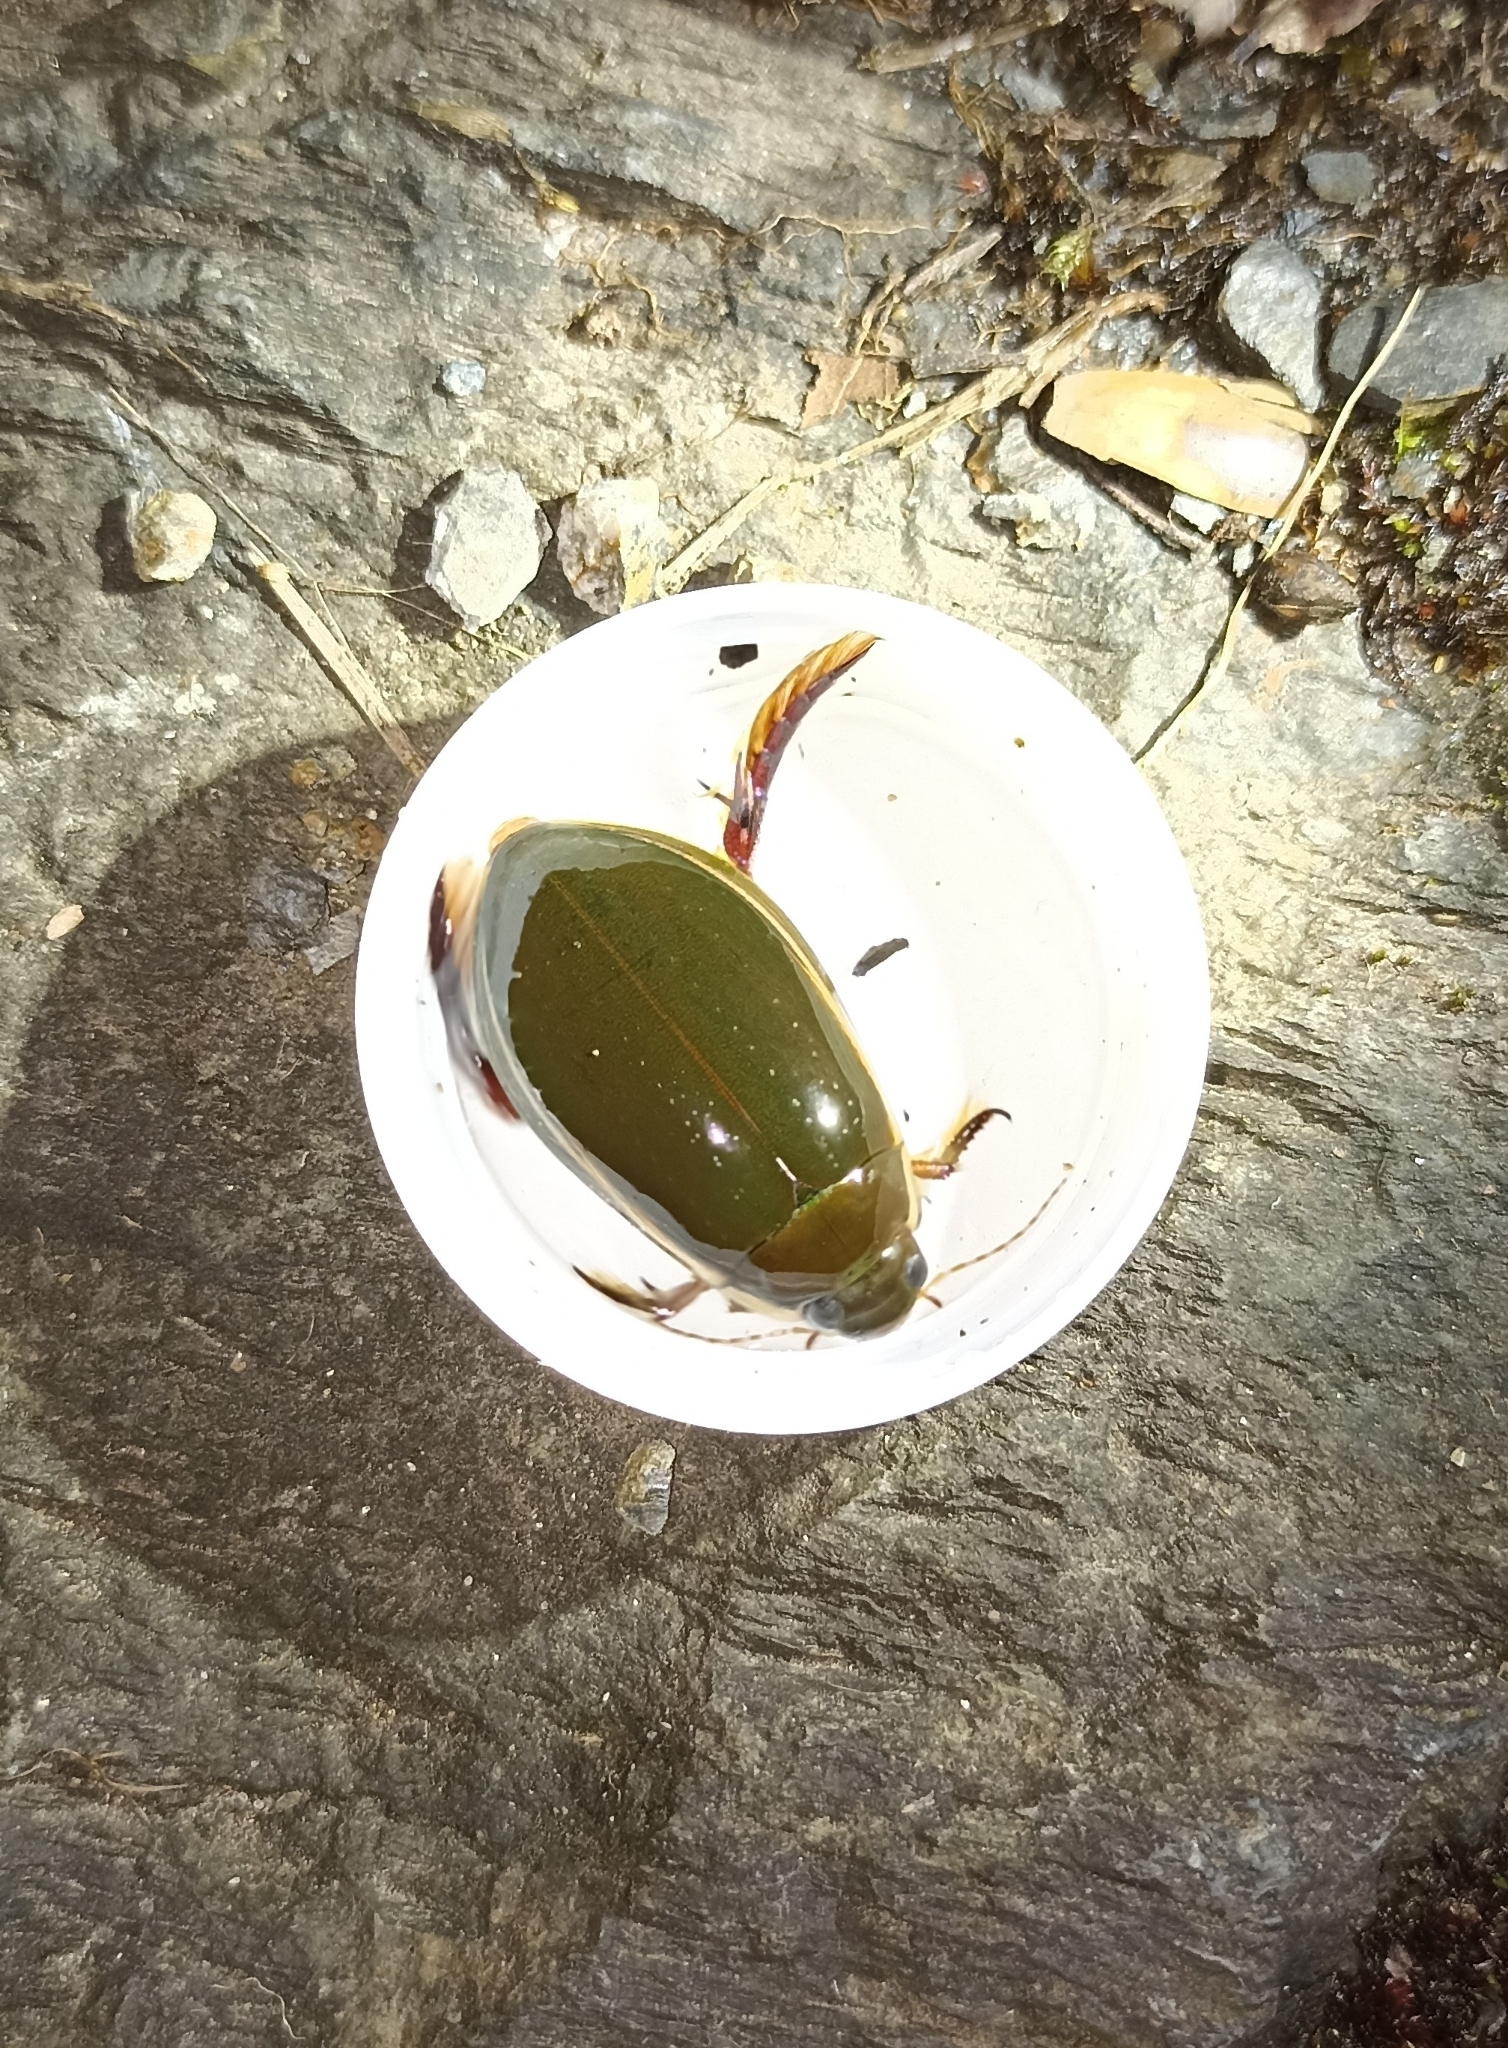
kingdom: Animalia
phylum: Arthropoda
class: Insecta
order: Coleoptera
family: Dytiscidae
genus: Cybister
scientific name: Cybister lateralimarginalis
